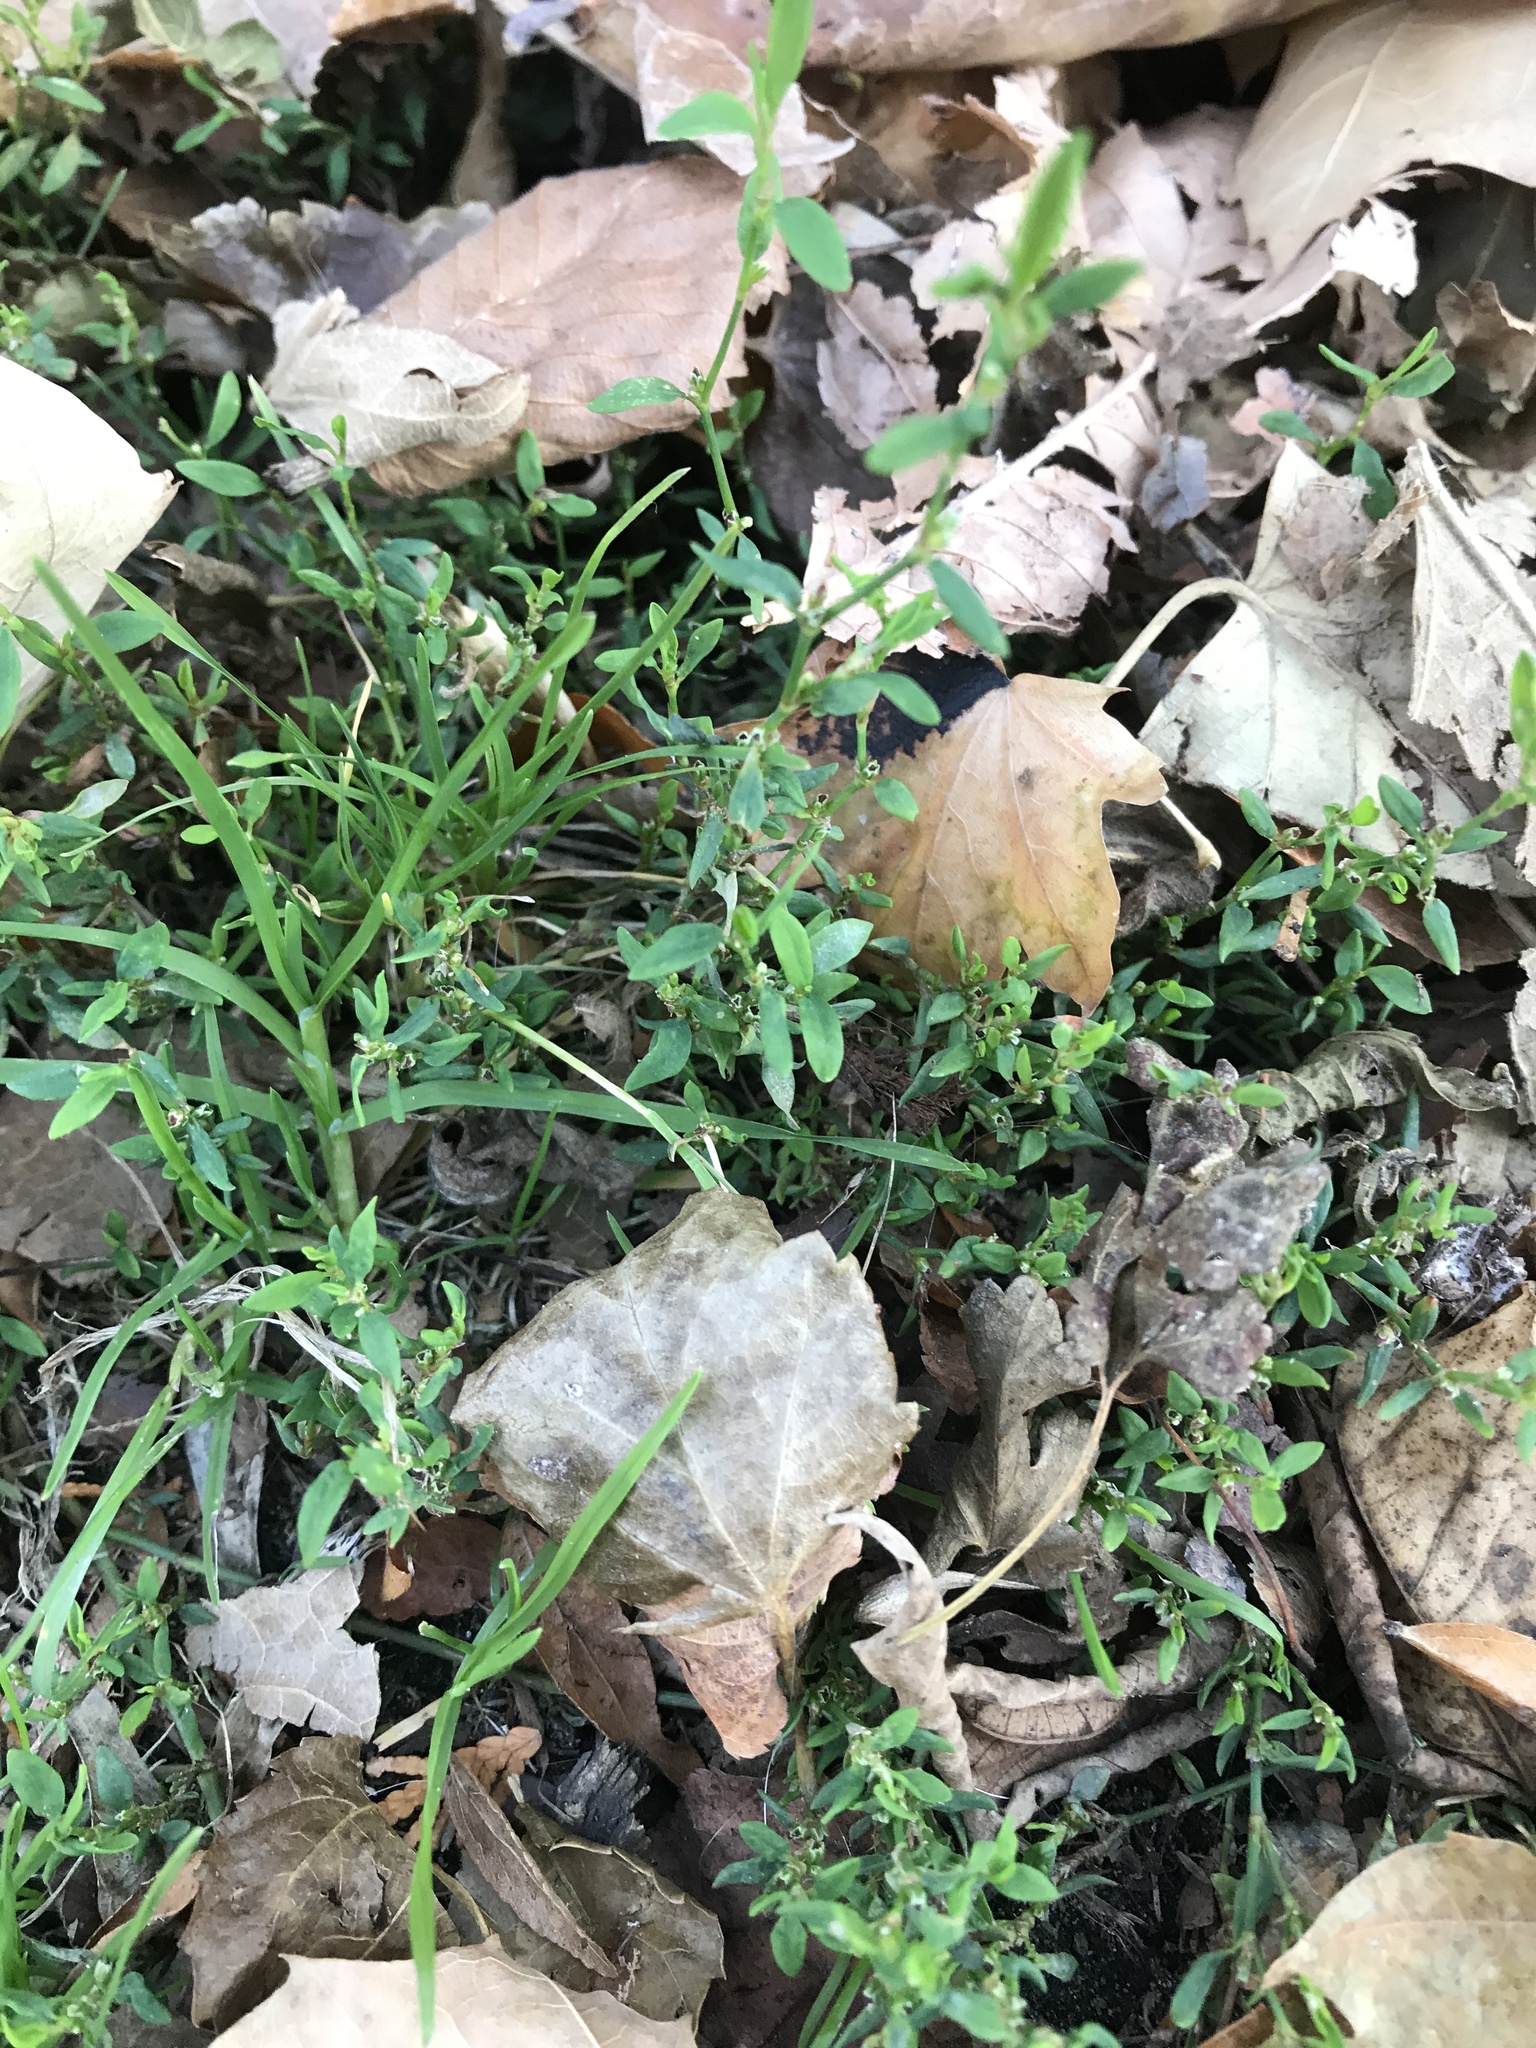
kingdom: Plantae
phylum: Tracheophyta
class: Magnoliopsida
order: Caryophyllales
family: Polygonaceae
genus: Polygonum
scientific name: Polygonum aviculare
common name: Prostrate knotweed
